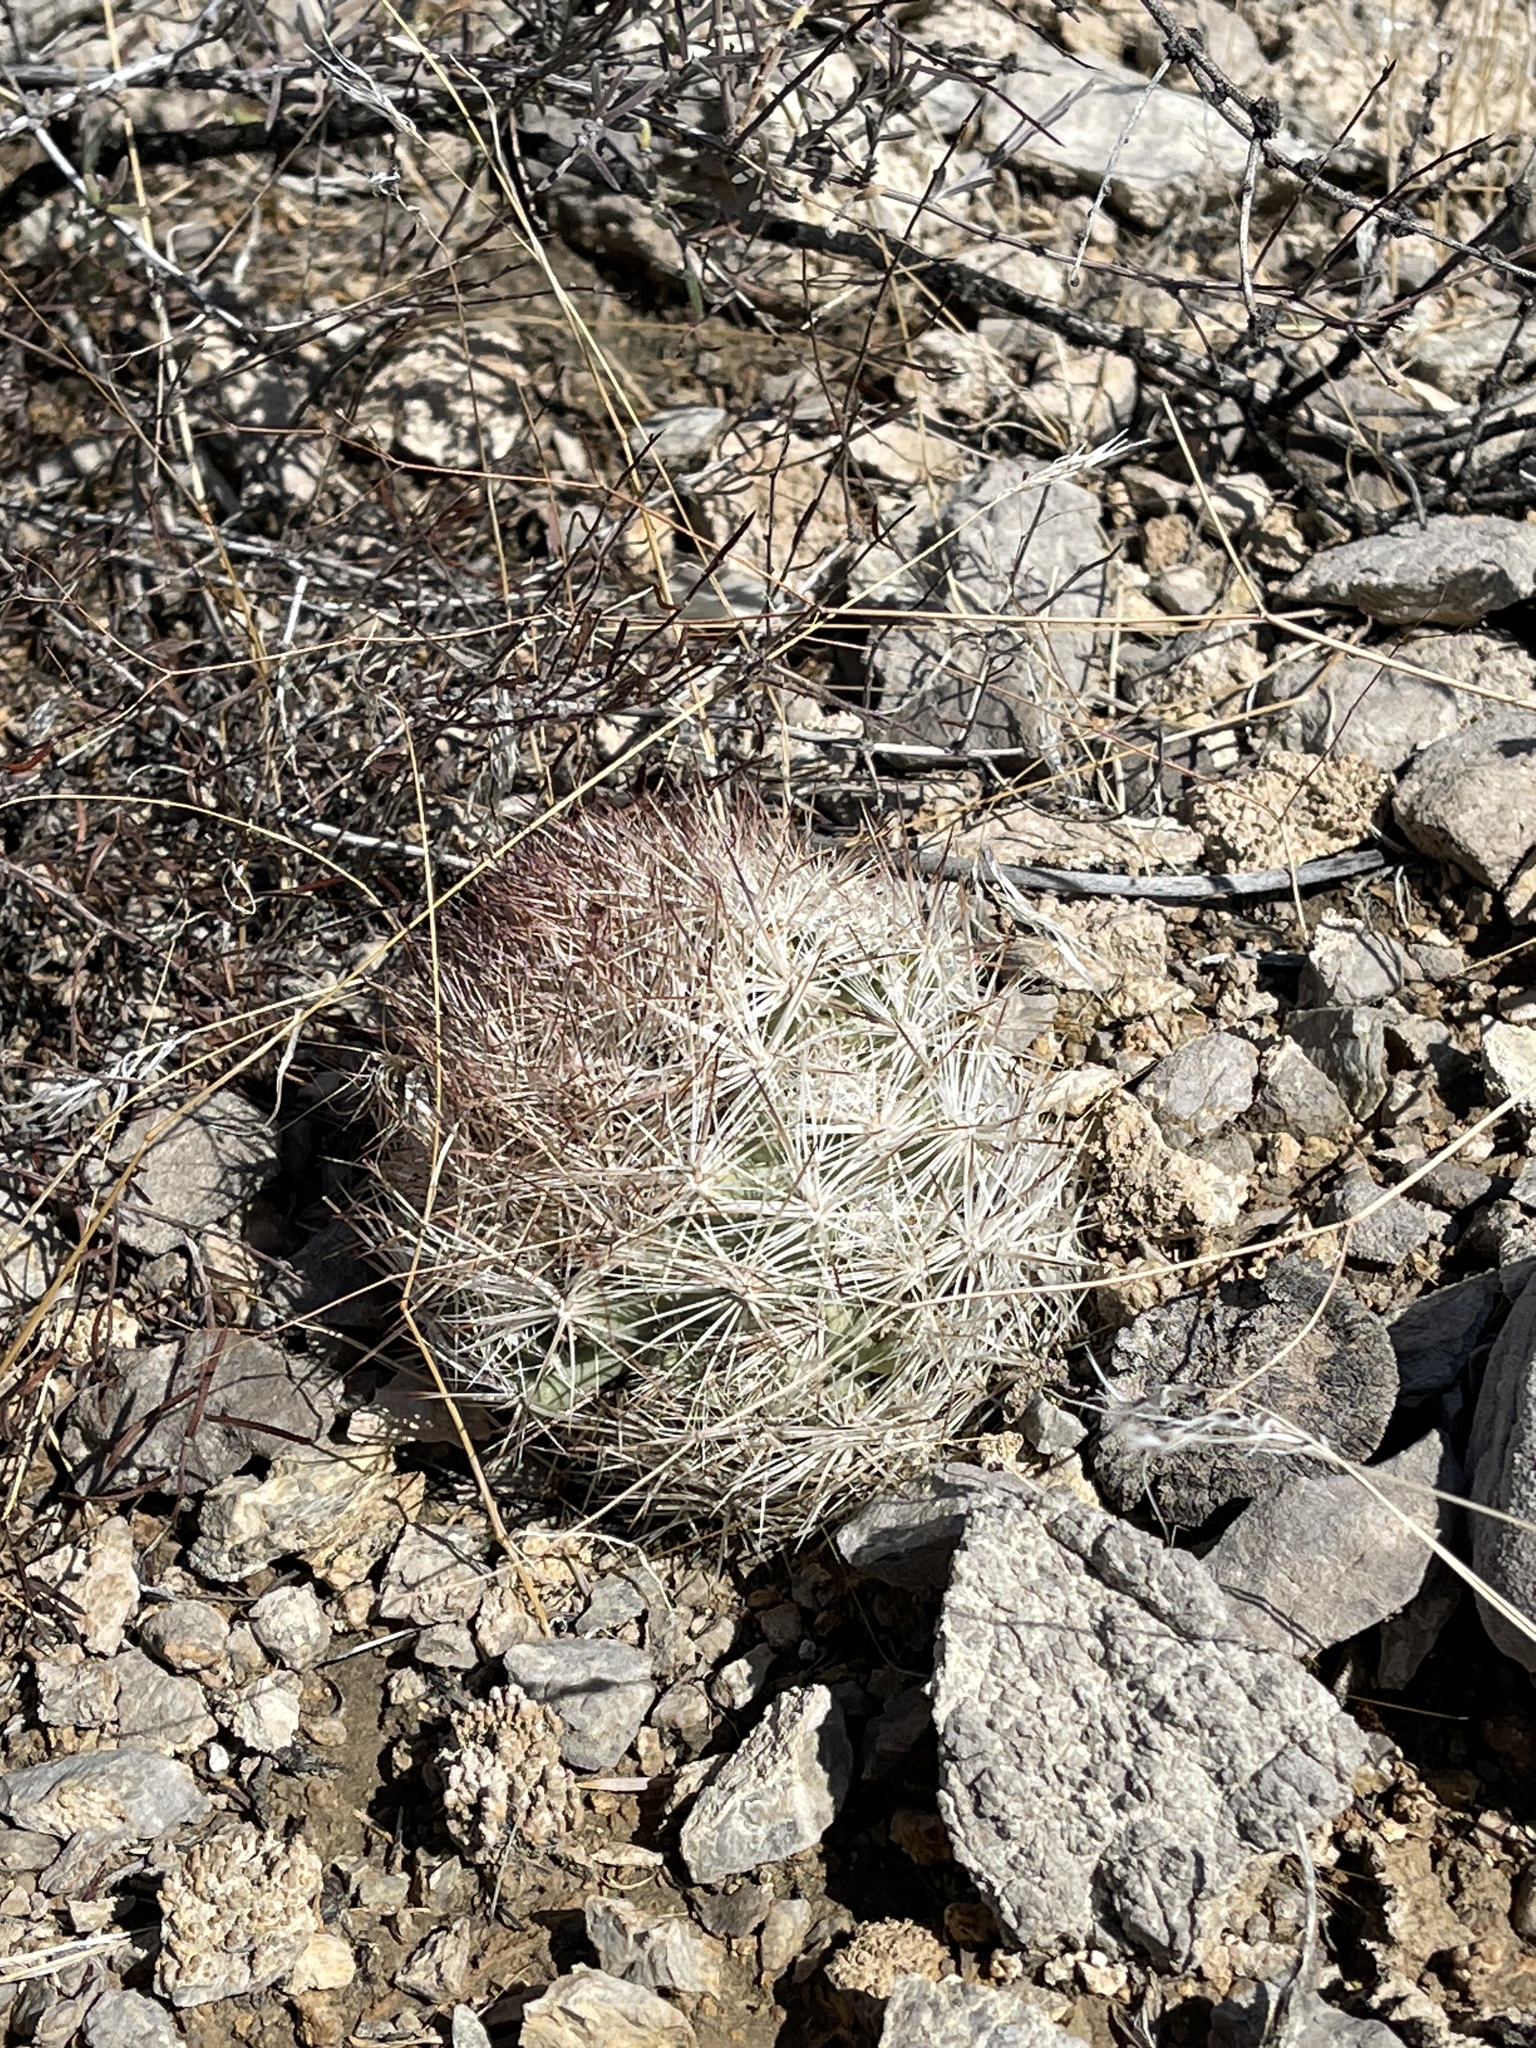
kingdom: Plantae
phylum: Tracheophyta
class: Magnoliopsida
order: Caryophyllales
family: Cactaceae
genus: Pelecyphora
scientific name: Pelecyphora vivipara
